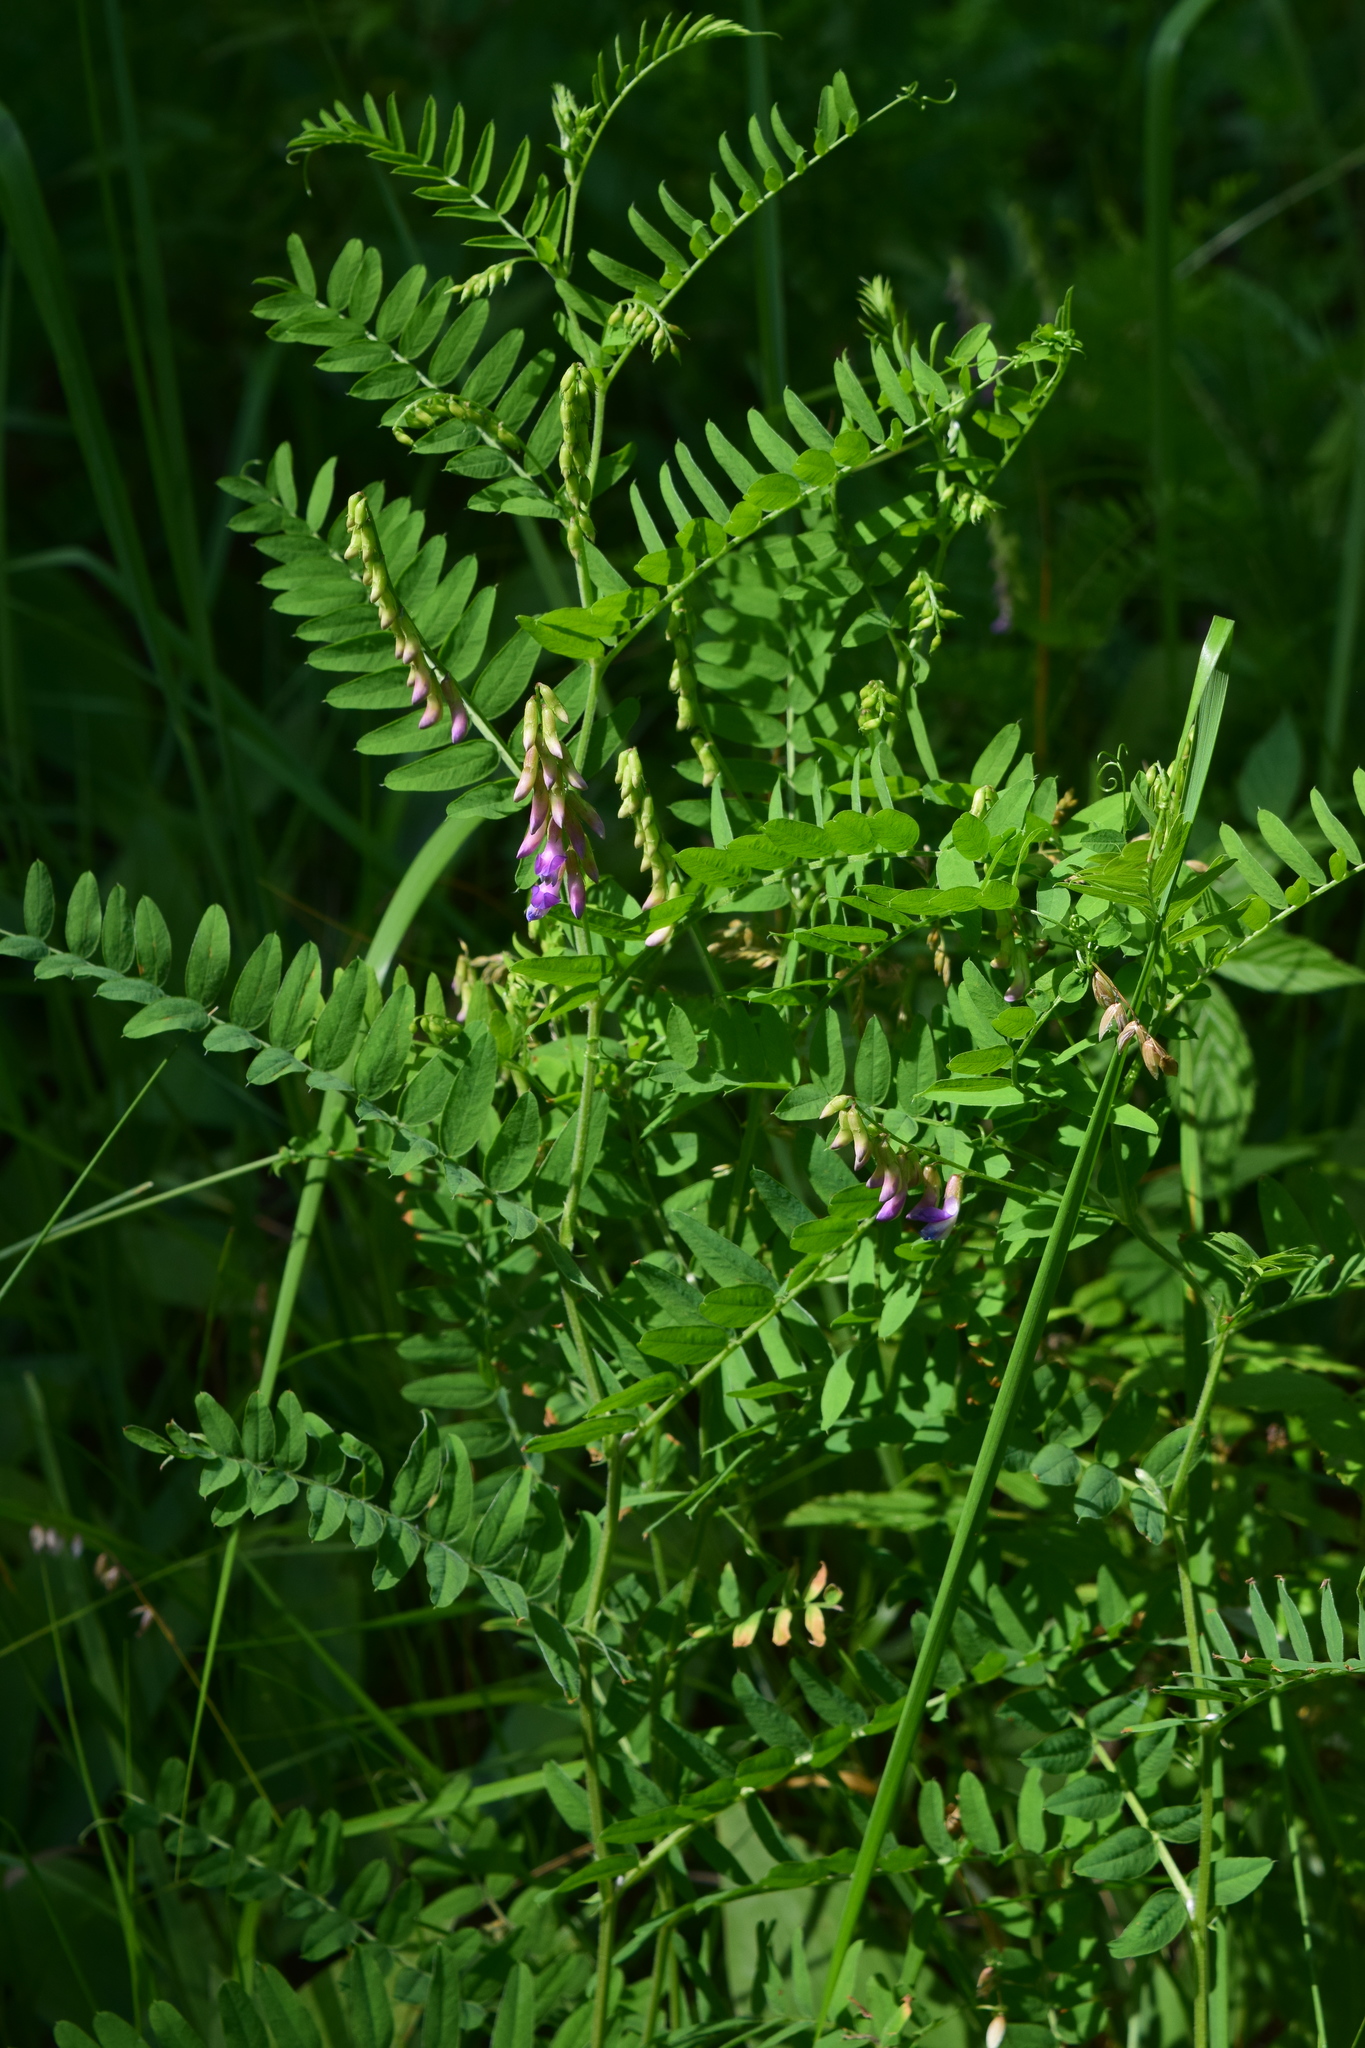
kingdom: Plantae
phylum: Tracheophyta
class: Magnoliopsida
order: Fabales
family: Fabaceae
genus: Vicia
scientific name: Vicia cassubica
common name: Danzig vetch
